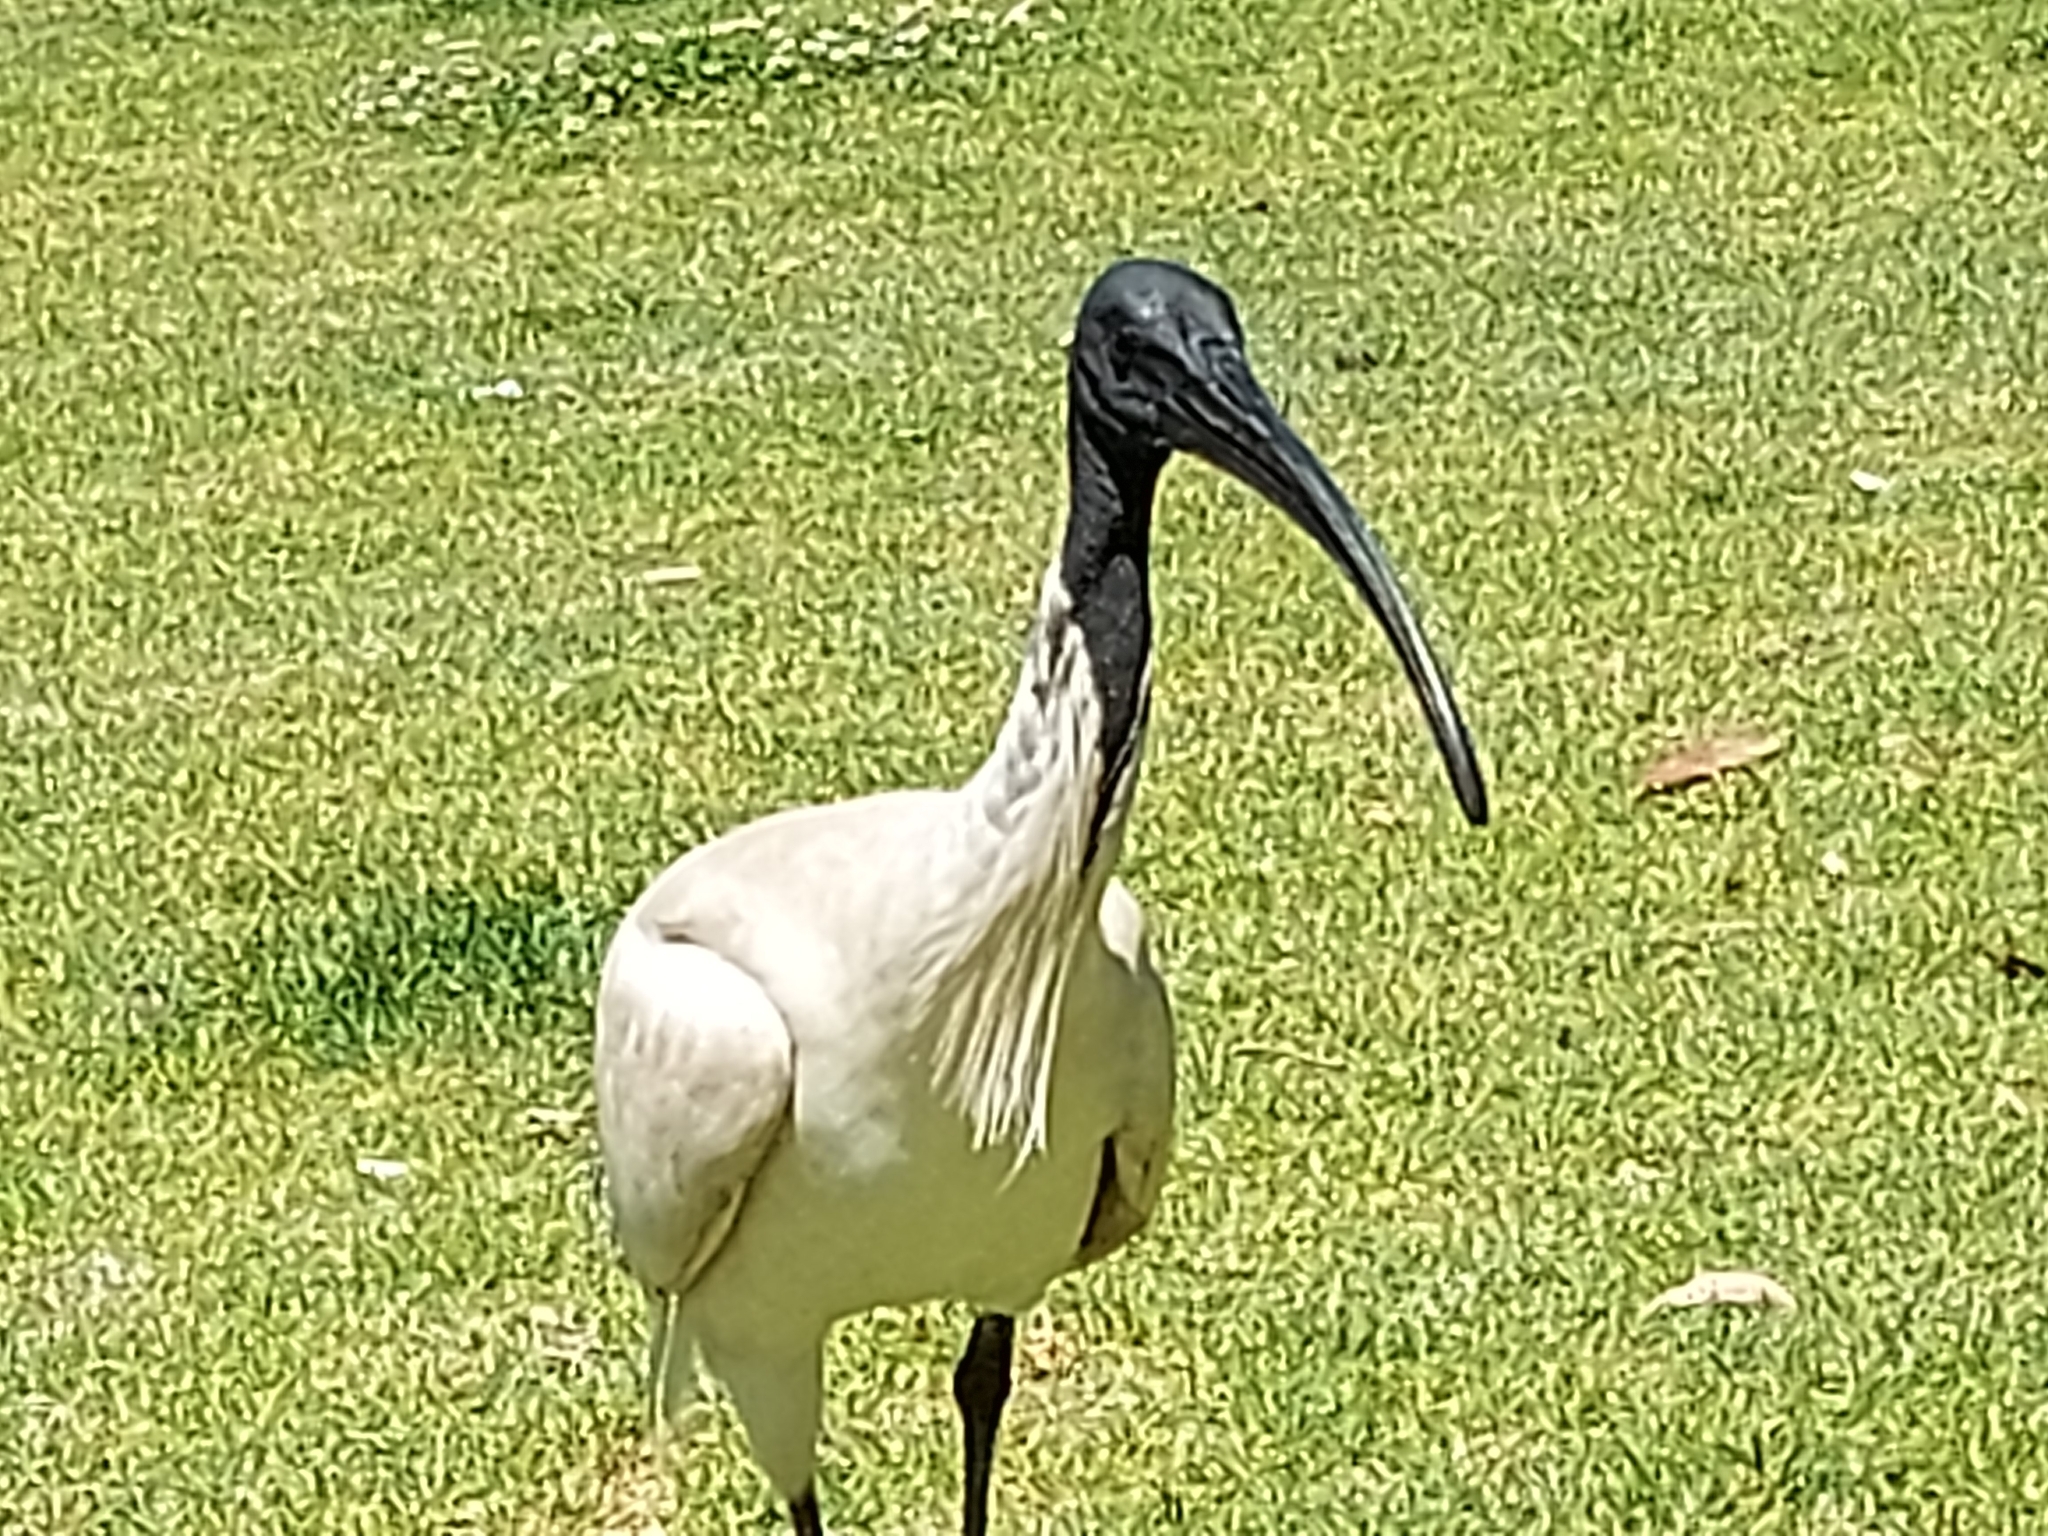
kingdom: Animalia
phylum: Chordata
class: Aves
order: Pelecaniformes
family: Threskiornithidae
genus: Threskiornis
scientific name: Threskiornis molucca
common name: Australian white ibis
